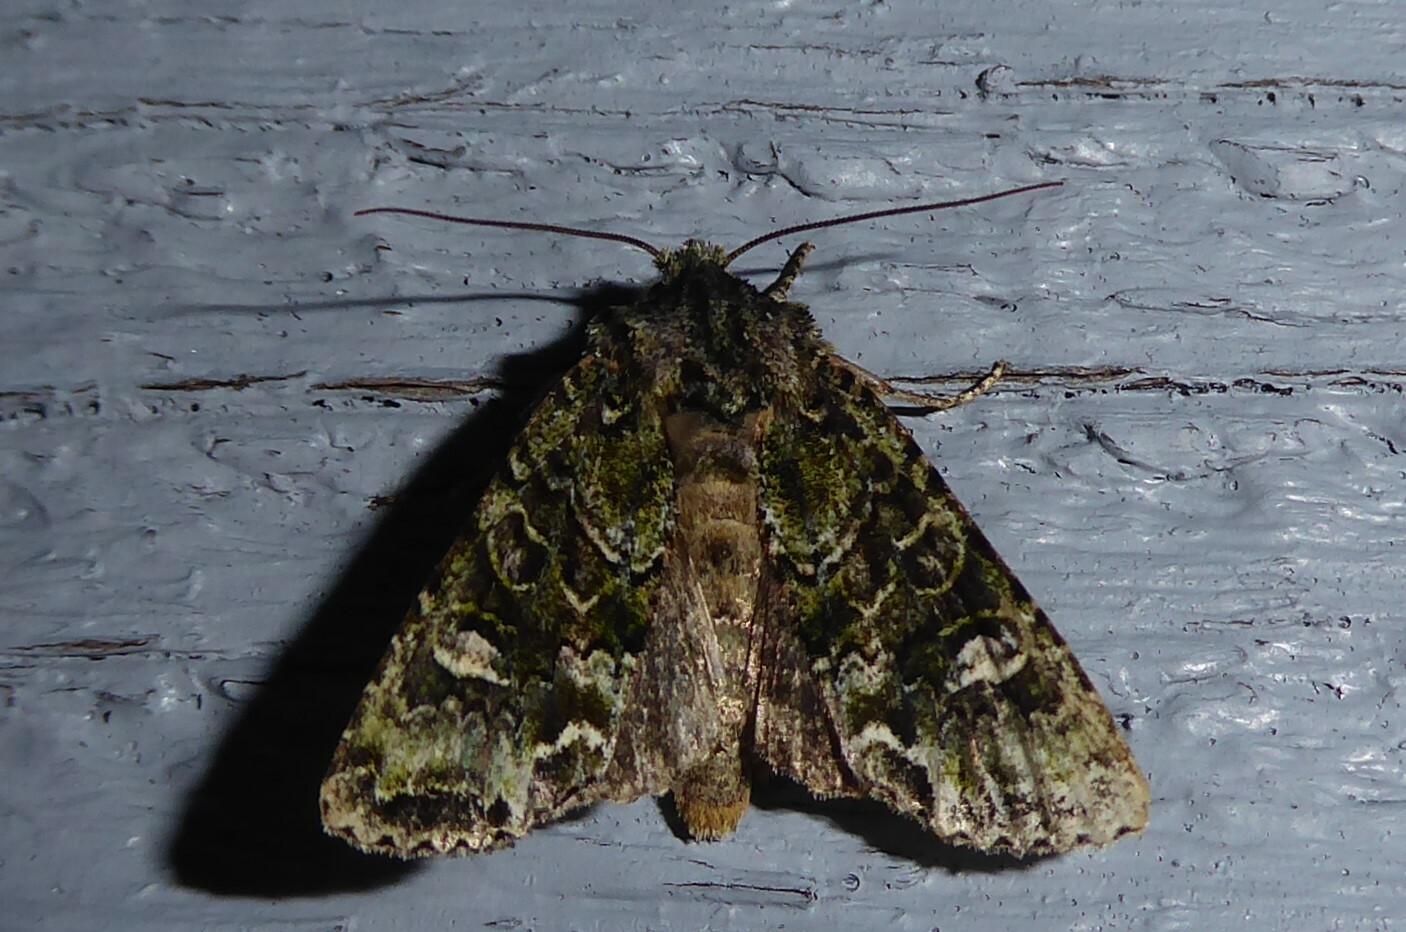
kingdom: Animalia
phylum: Arthropoda
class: Insecta
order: Lepidoptera
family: Noctuidae
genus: Ichneutica
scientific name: Ichneutica
